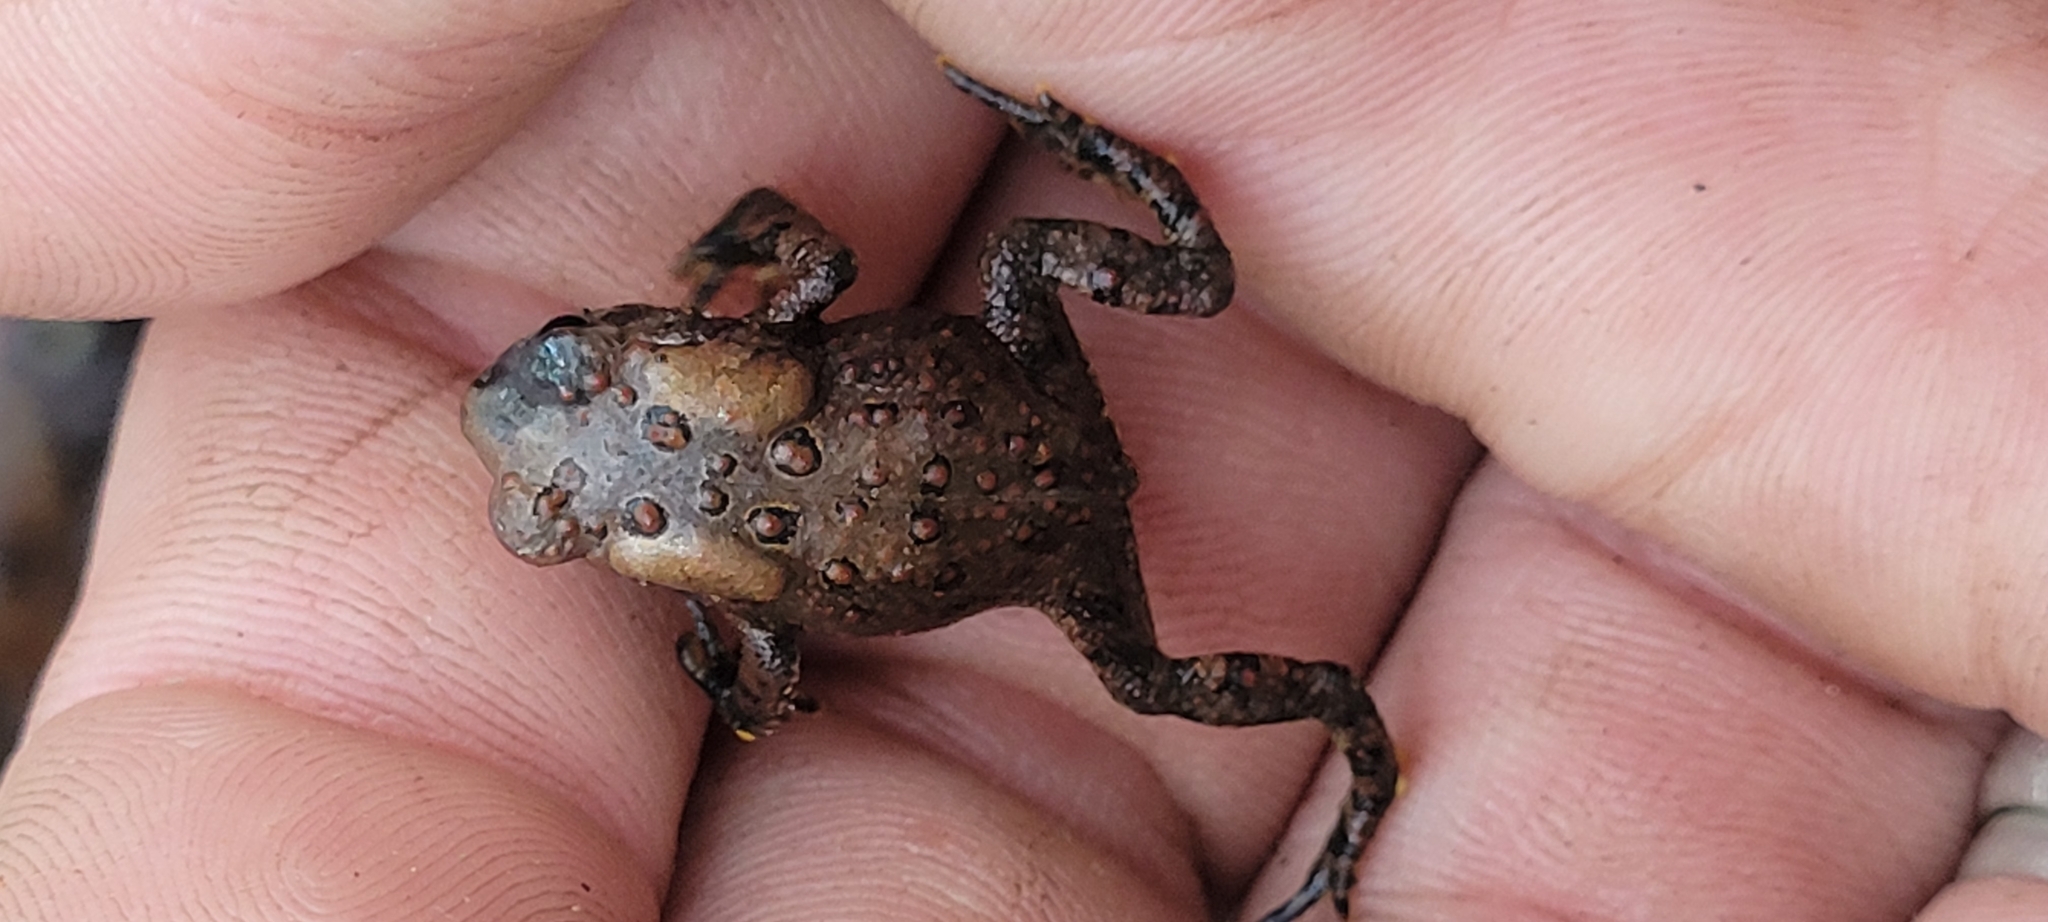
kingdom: Animalia
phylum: Chordata
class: Amphibia
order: Anura
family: Bufonidae
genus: Anaxyrus
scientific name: Anaxyrus americanus
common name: American toad
